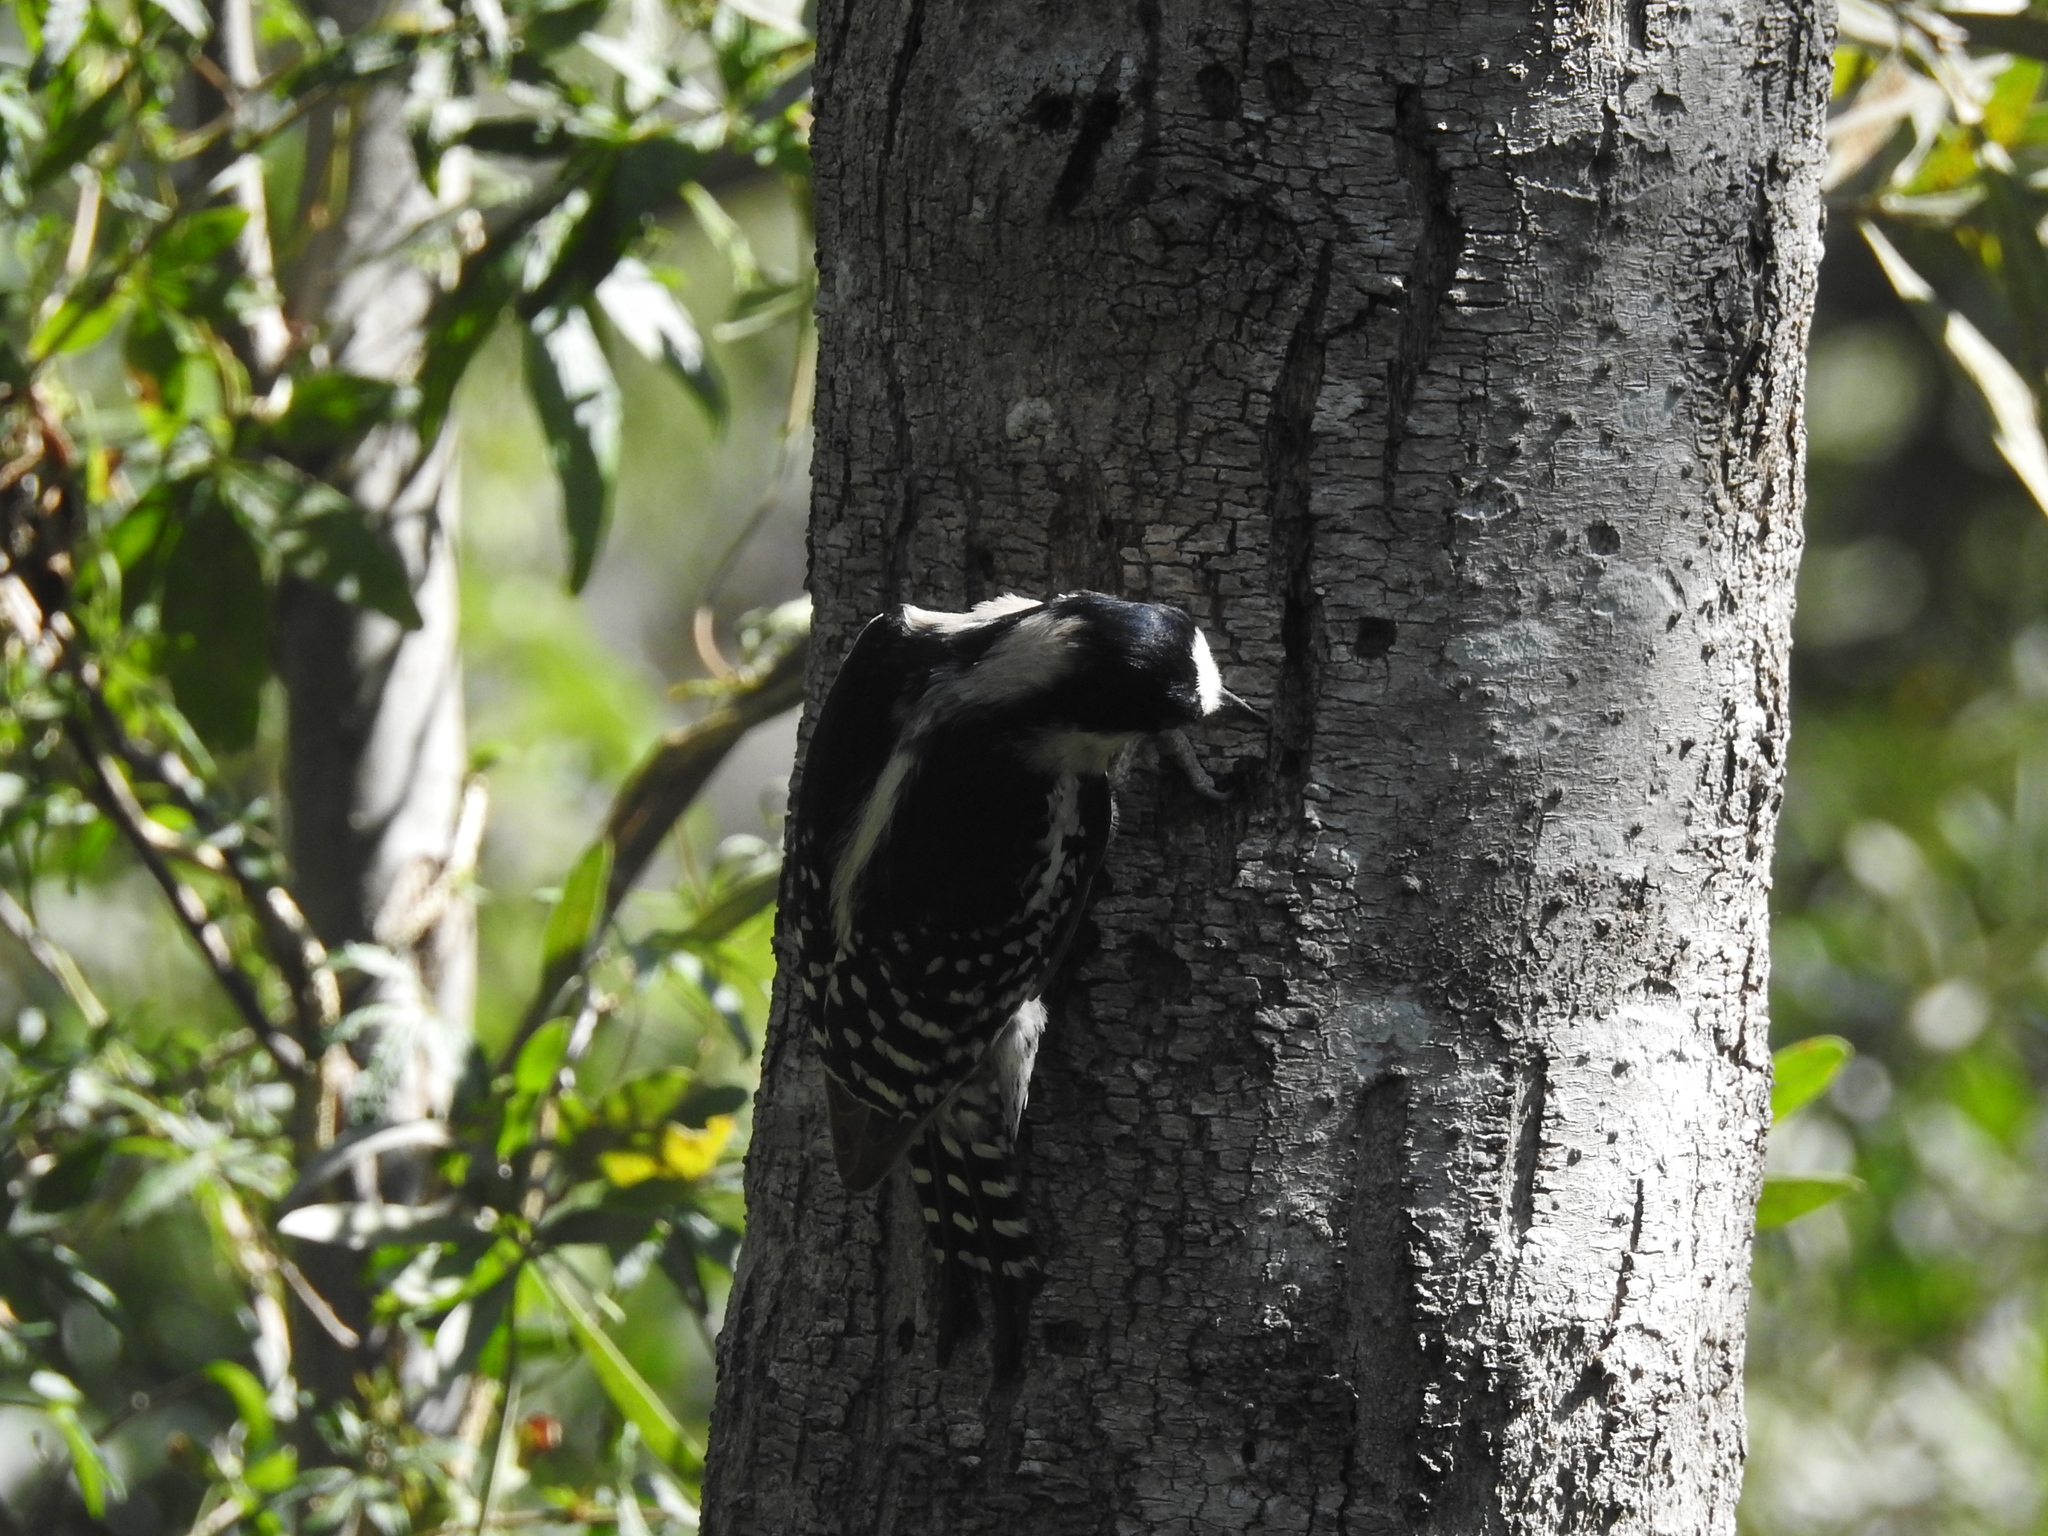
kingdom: Animalia
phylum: Chordata
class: Aves
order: Piciformes
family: Picidae
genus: Melanerpes
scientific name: Melanerpes cactorum
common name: White-fronted woodpecker
